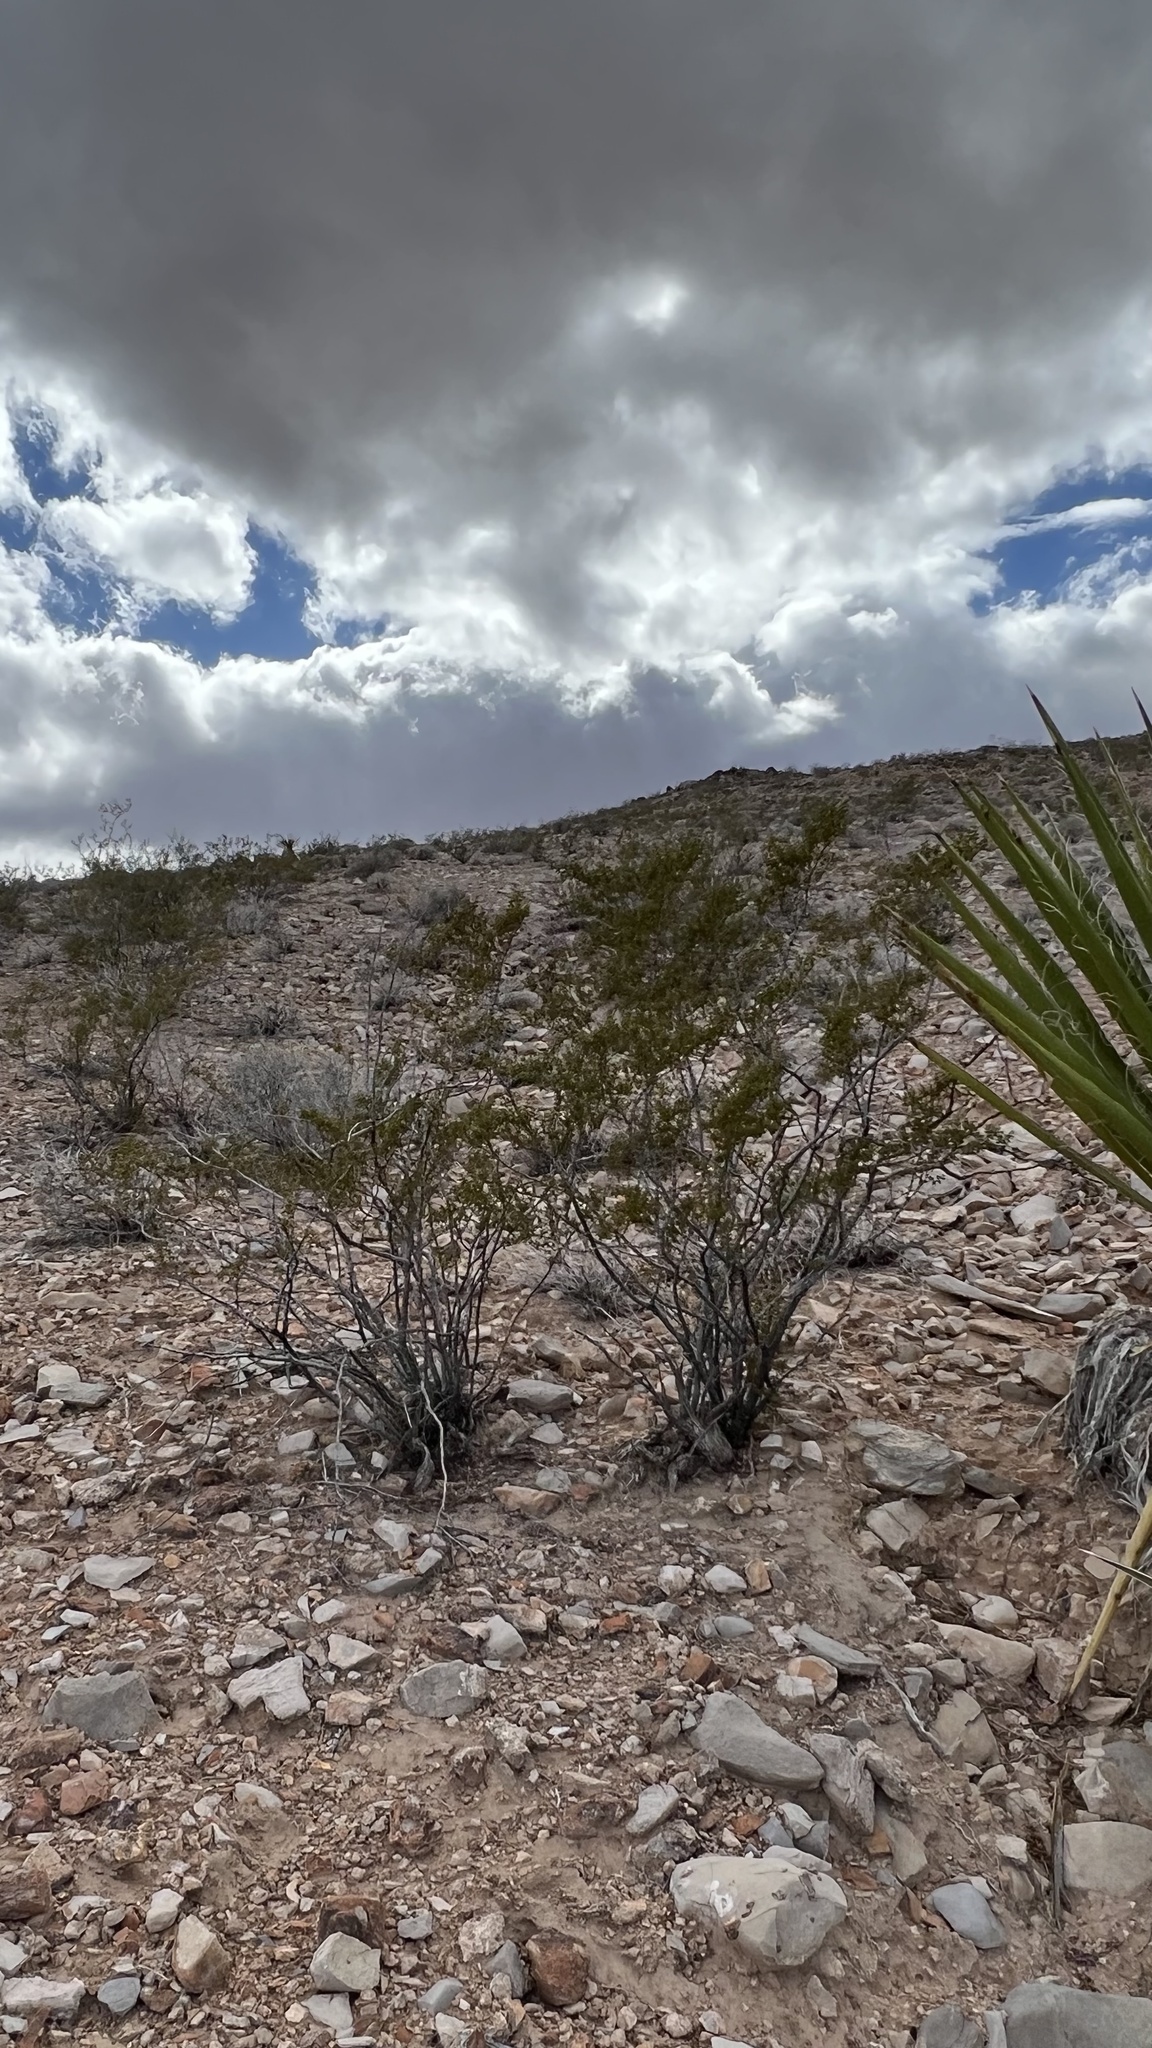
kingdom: Plantae
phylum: Tracheophyta
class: Magnoliopsida
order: Zygophyllales
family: Zygophyllaceae
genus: Larrea
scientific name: Larrea tridentata
